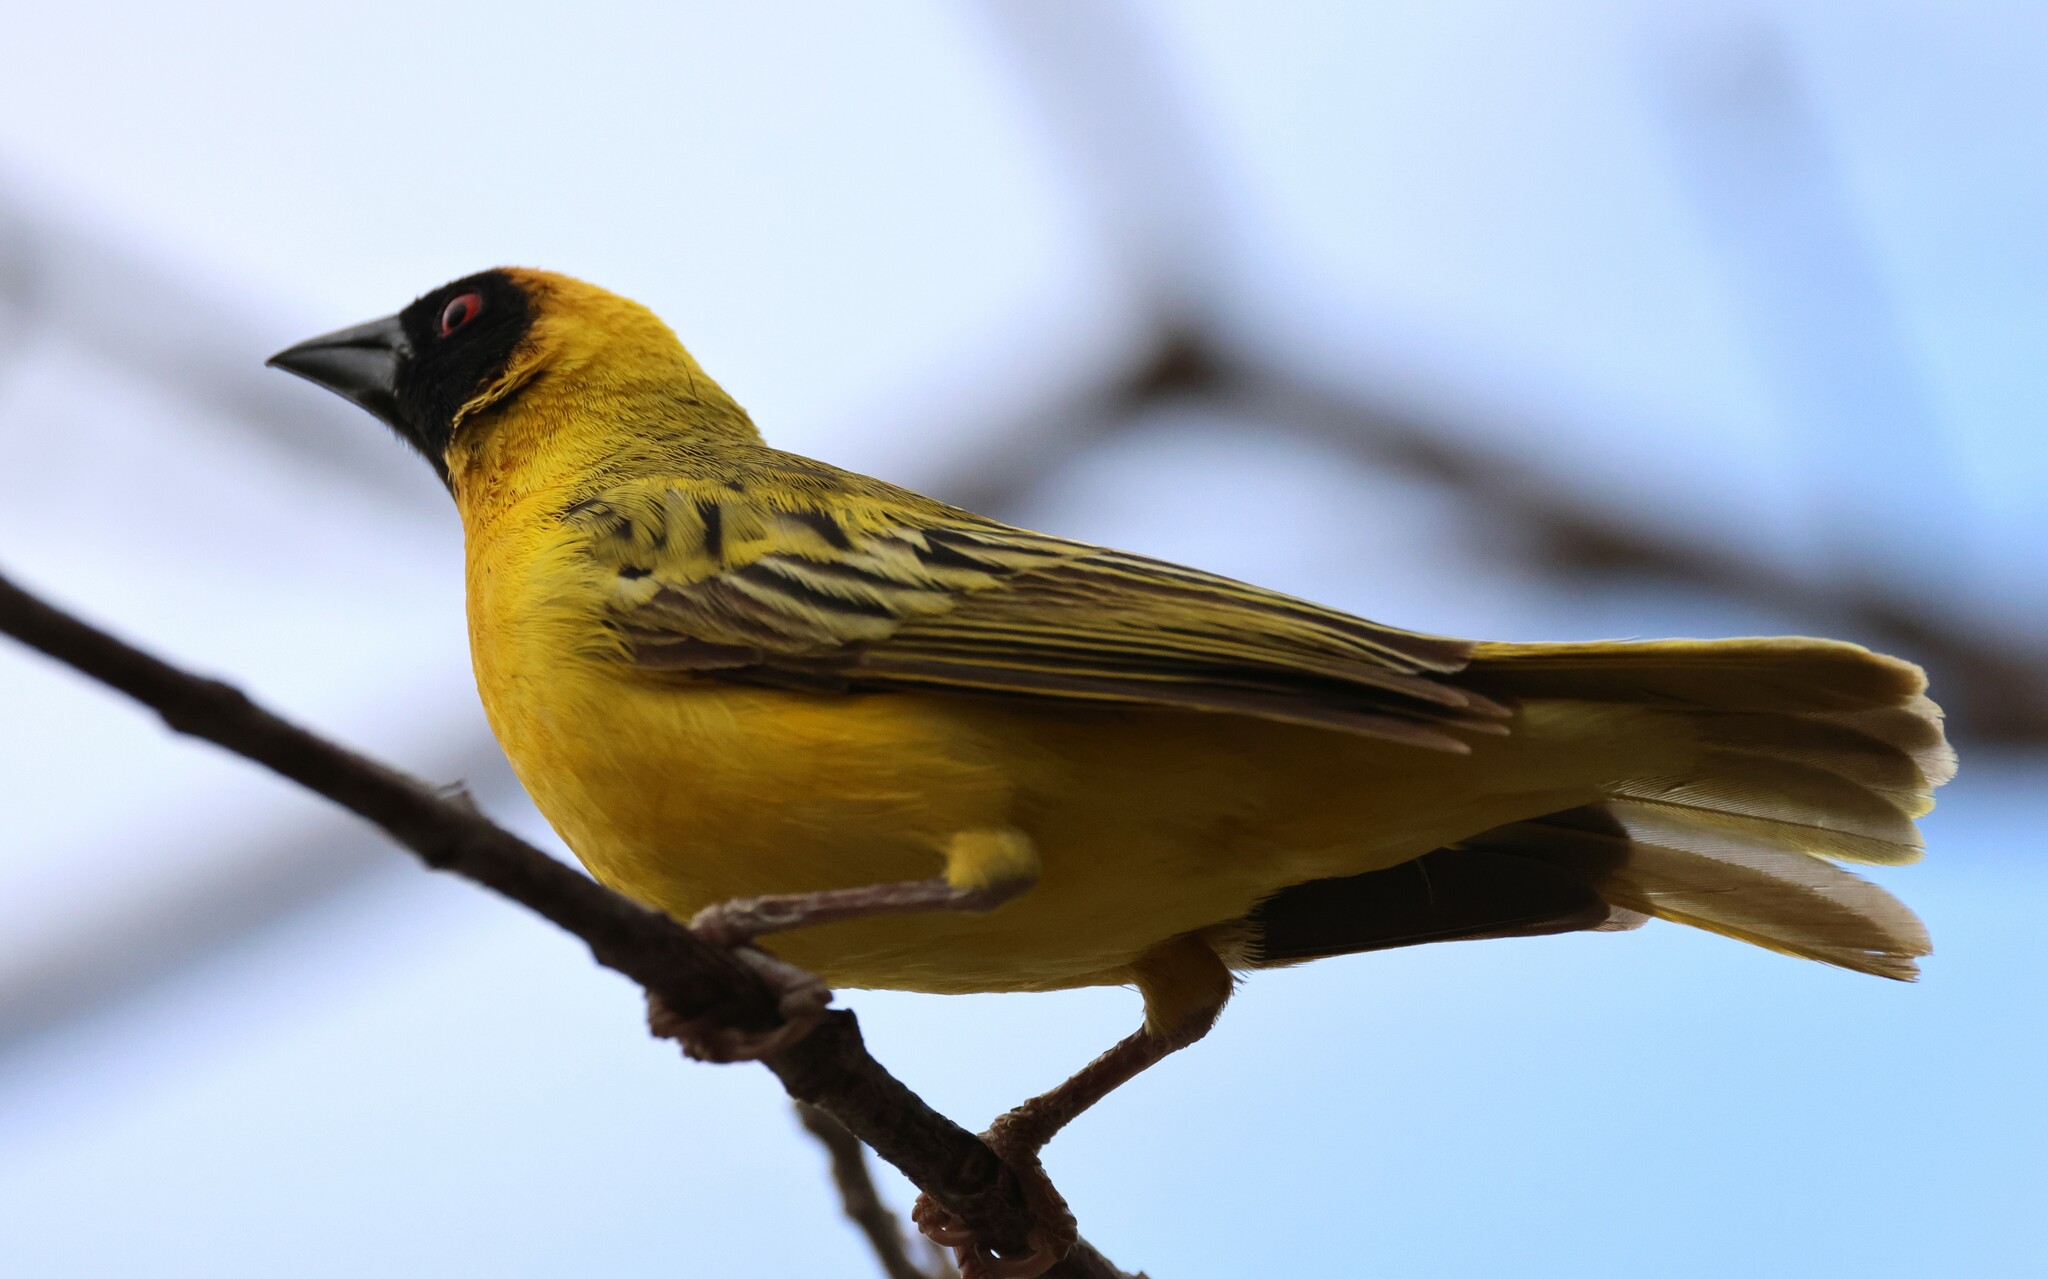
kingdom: Animalia
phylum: Chordata
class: Aves
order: Passeriformes
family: Ploceidae
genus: Ploceus
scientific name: Ploceus velatus
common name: Southern masked weaver
